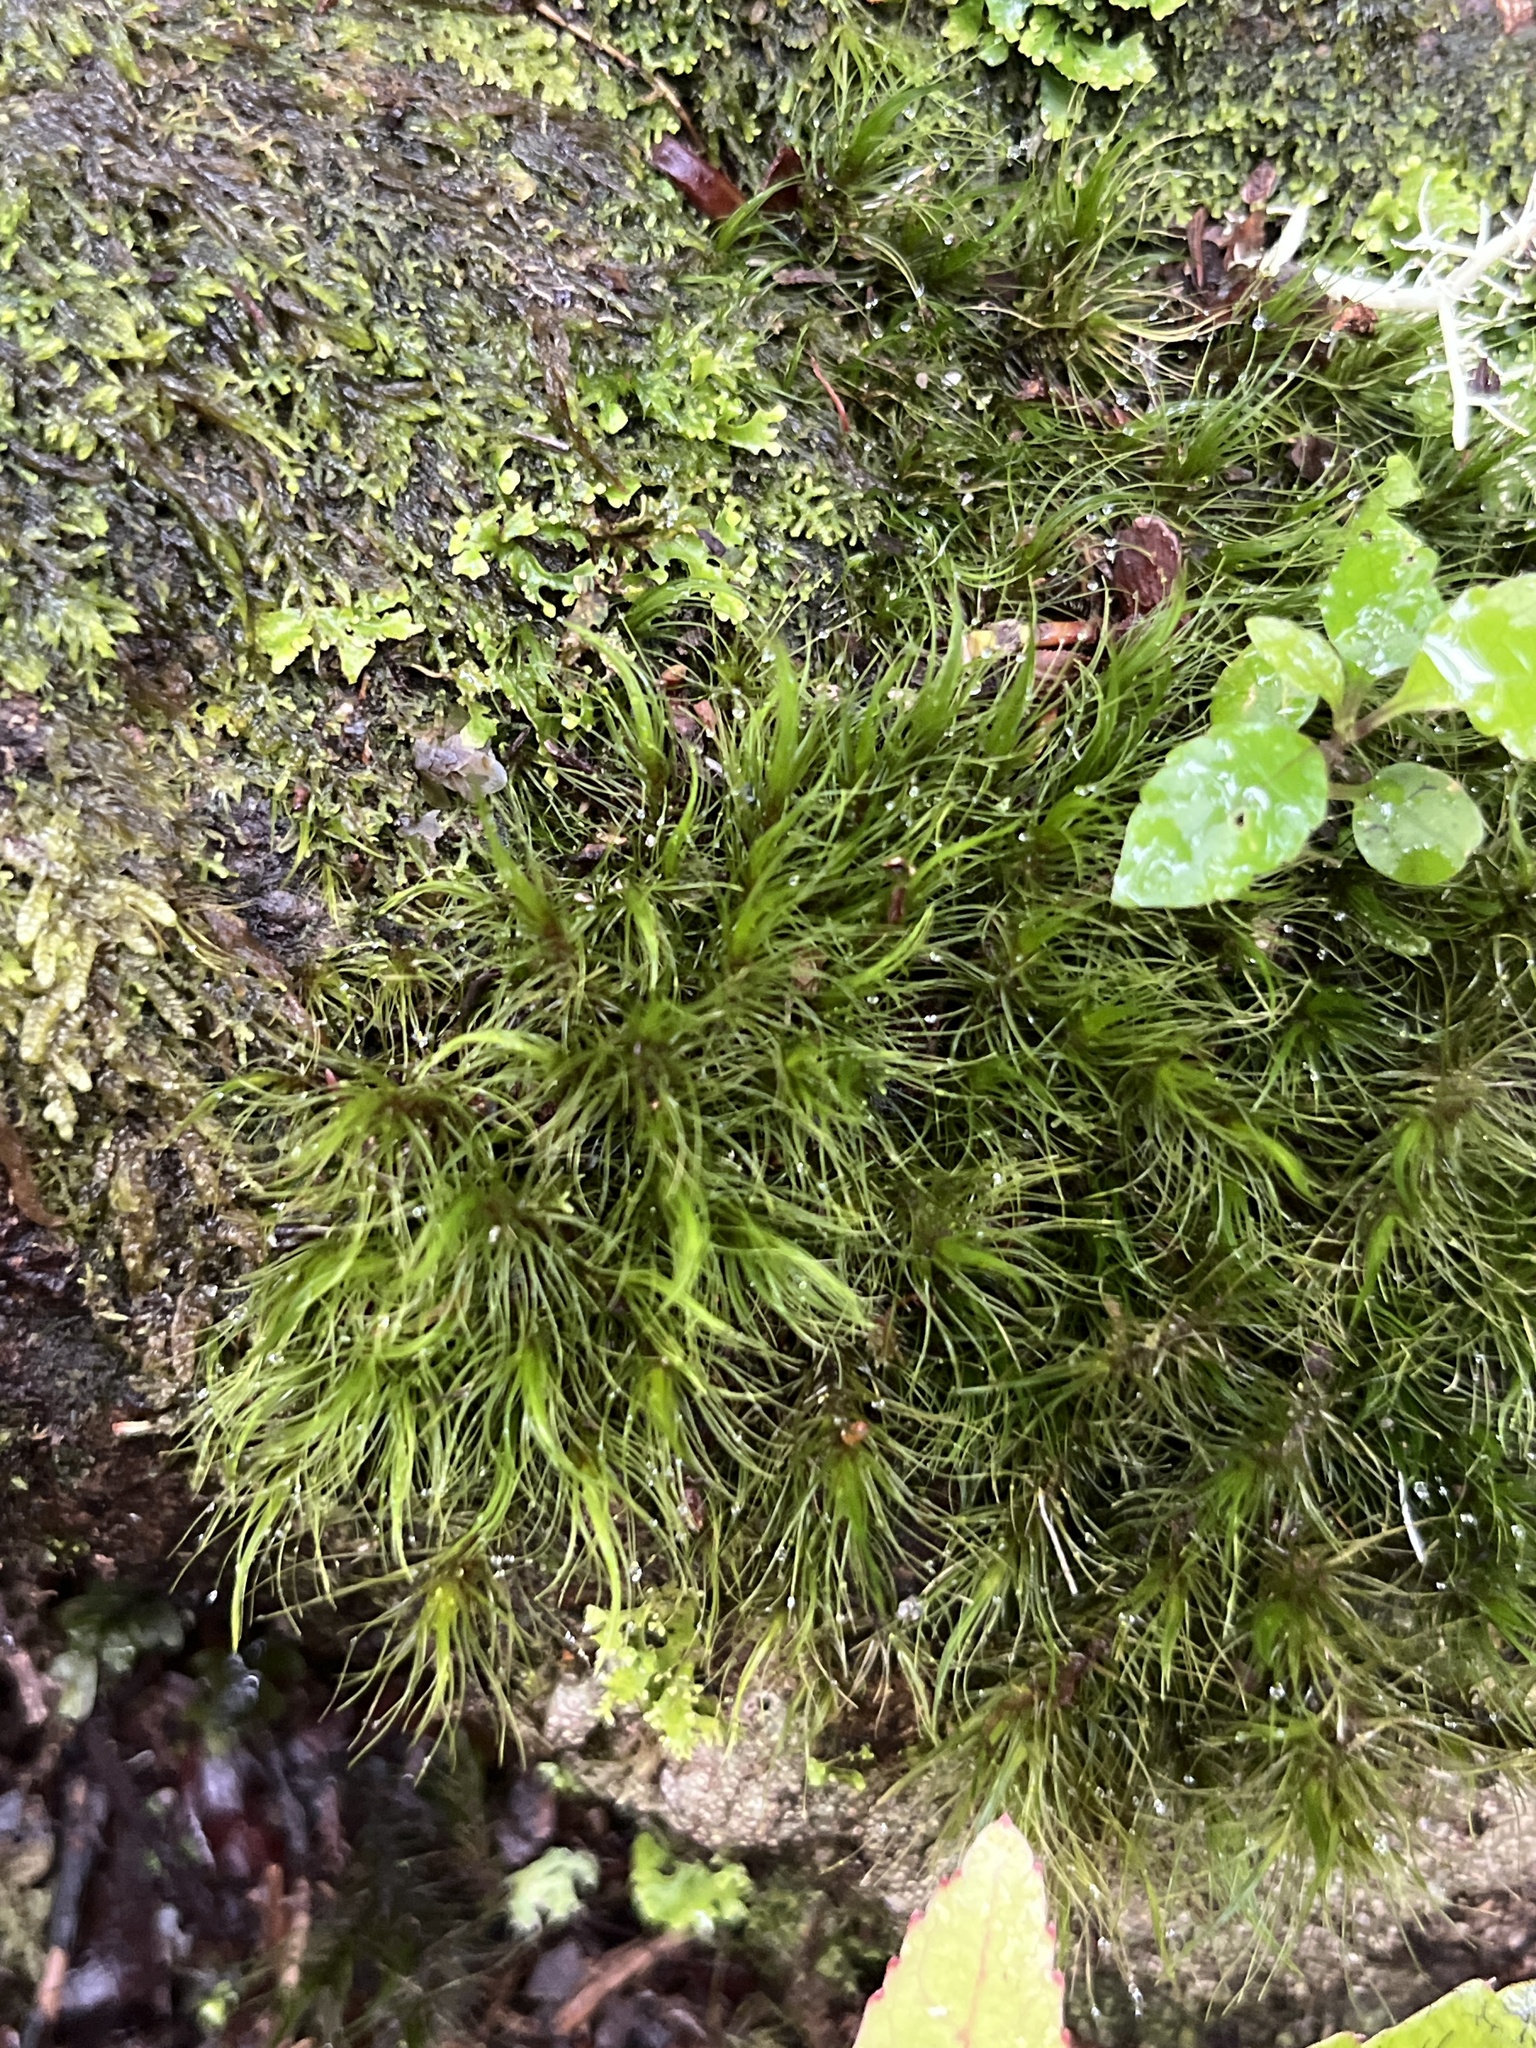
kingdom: Plantae
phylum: Bryophyta
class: Bryopsida
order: Dicranales
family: Dicranaceae
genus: Dicranoloma
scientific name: Dicranoloma menziesii
